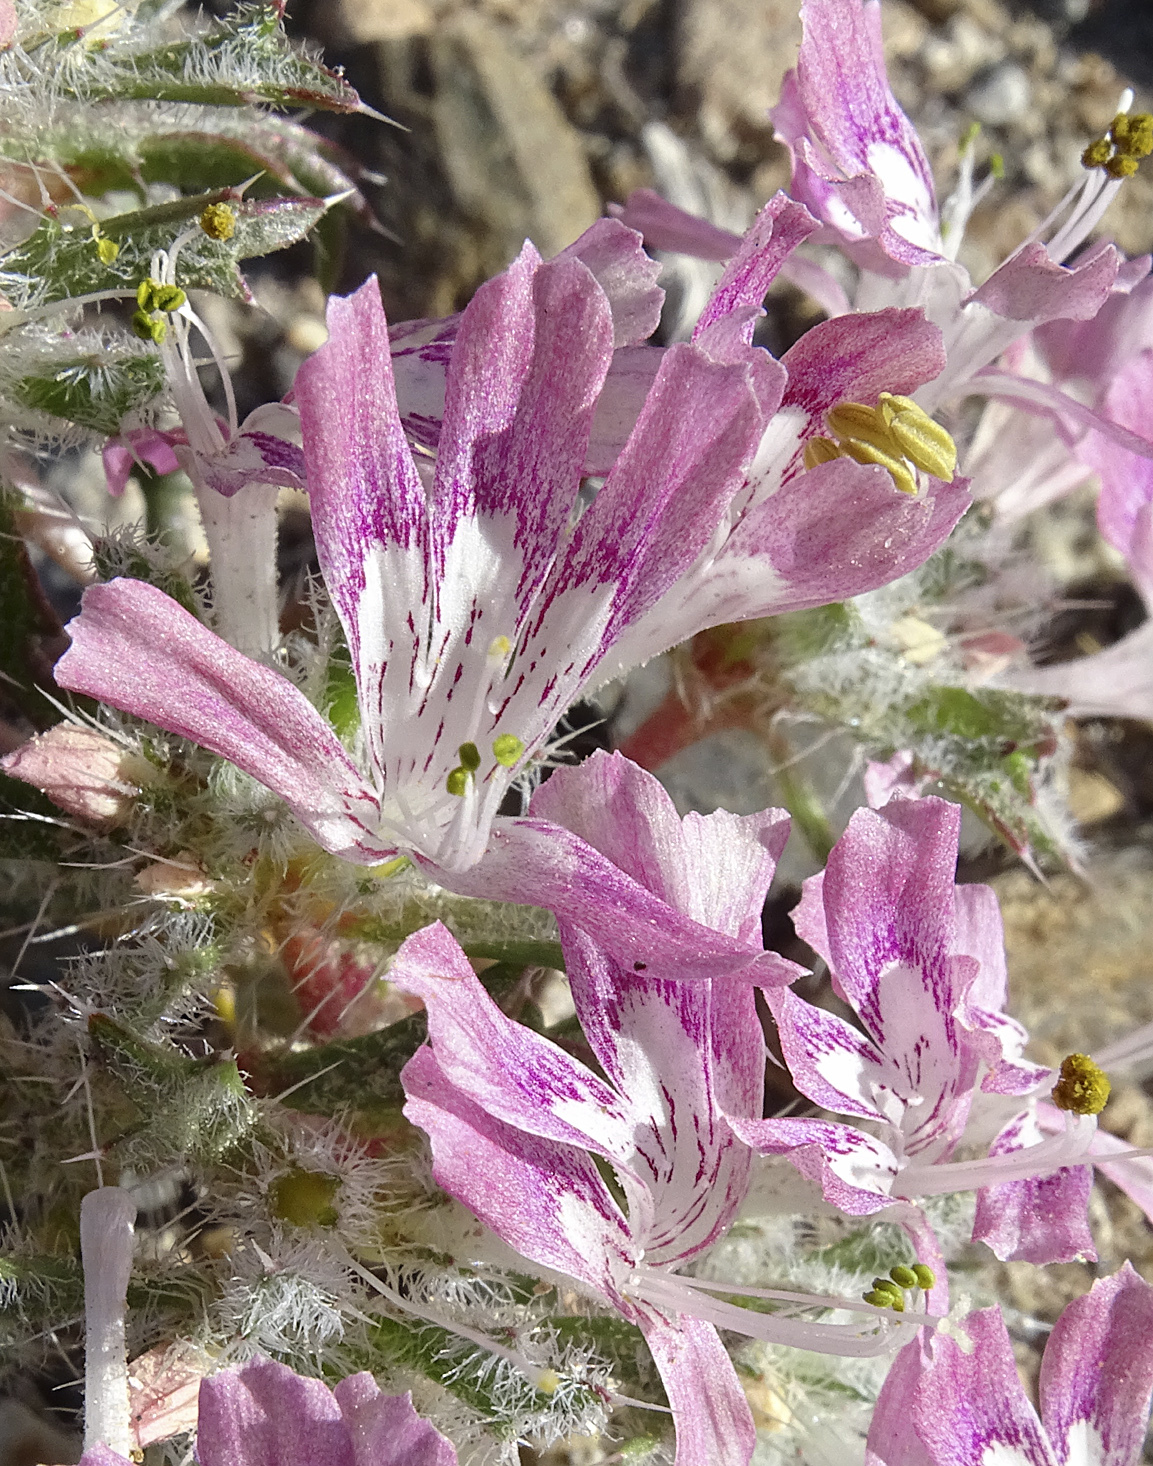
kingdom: Plantae
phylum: Tracheophyta
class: Magnoliopsida
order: Ericales
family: Polemoniaceae
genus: Loeseliastrum
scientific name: Loeseliastrum matthewsii
